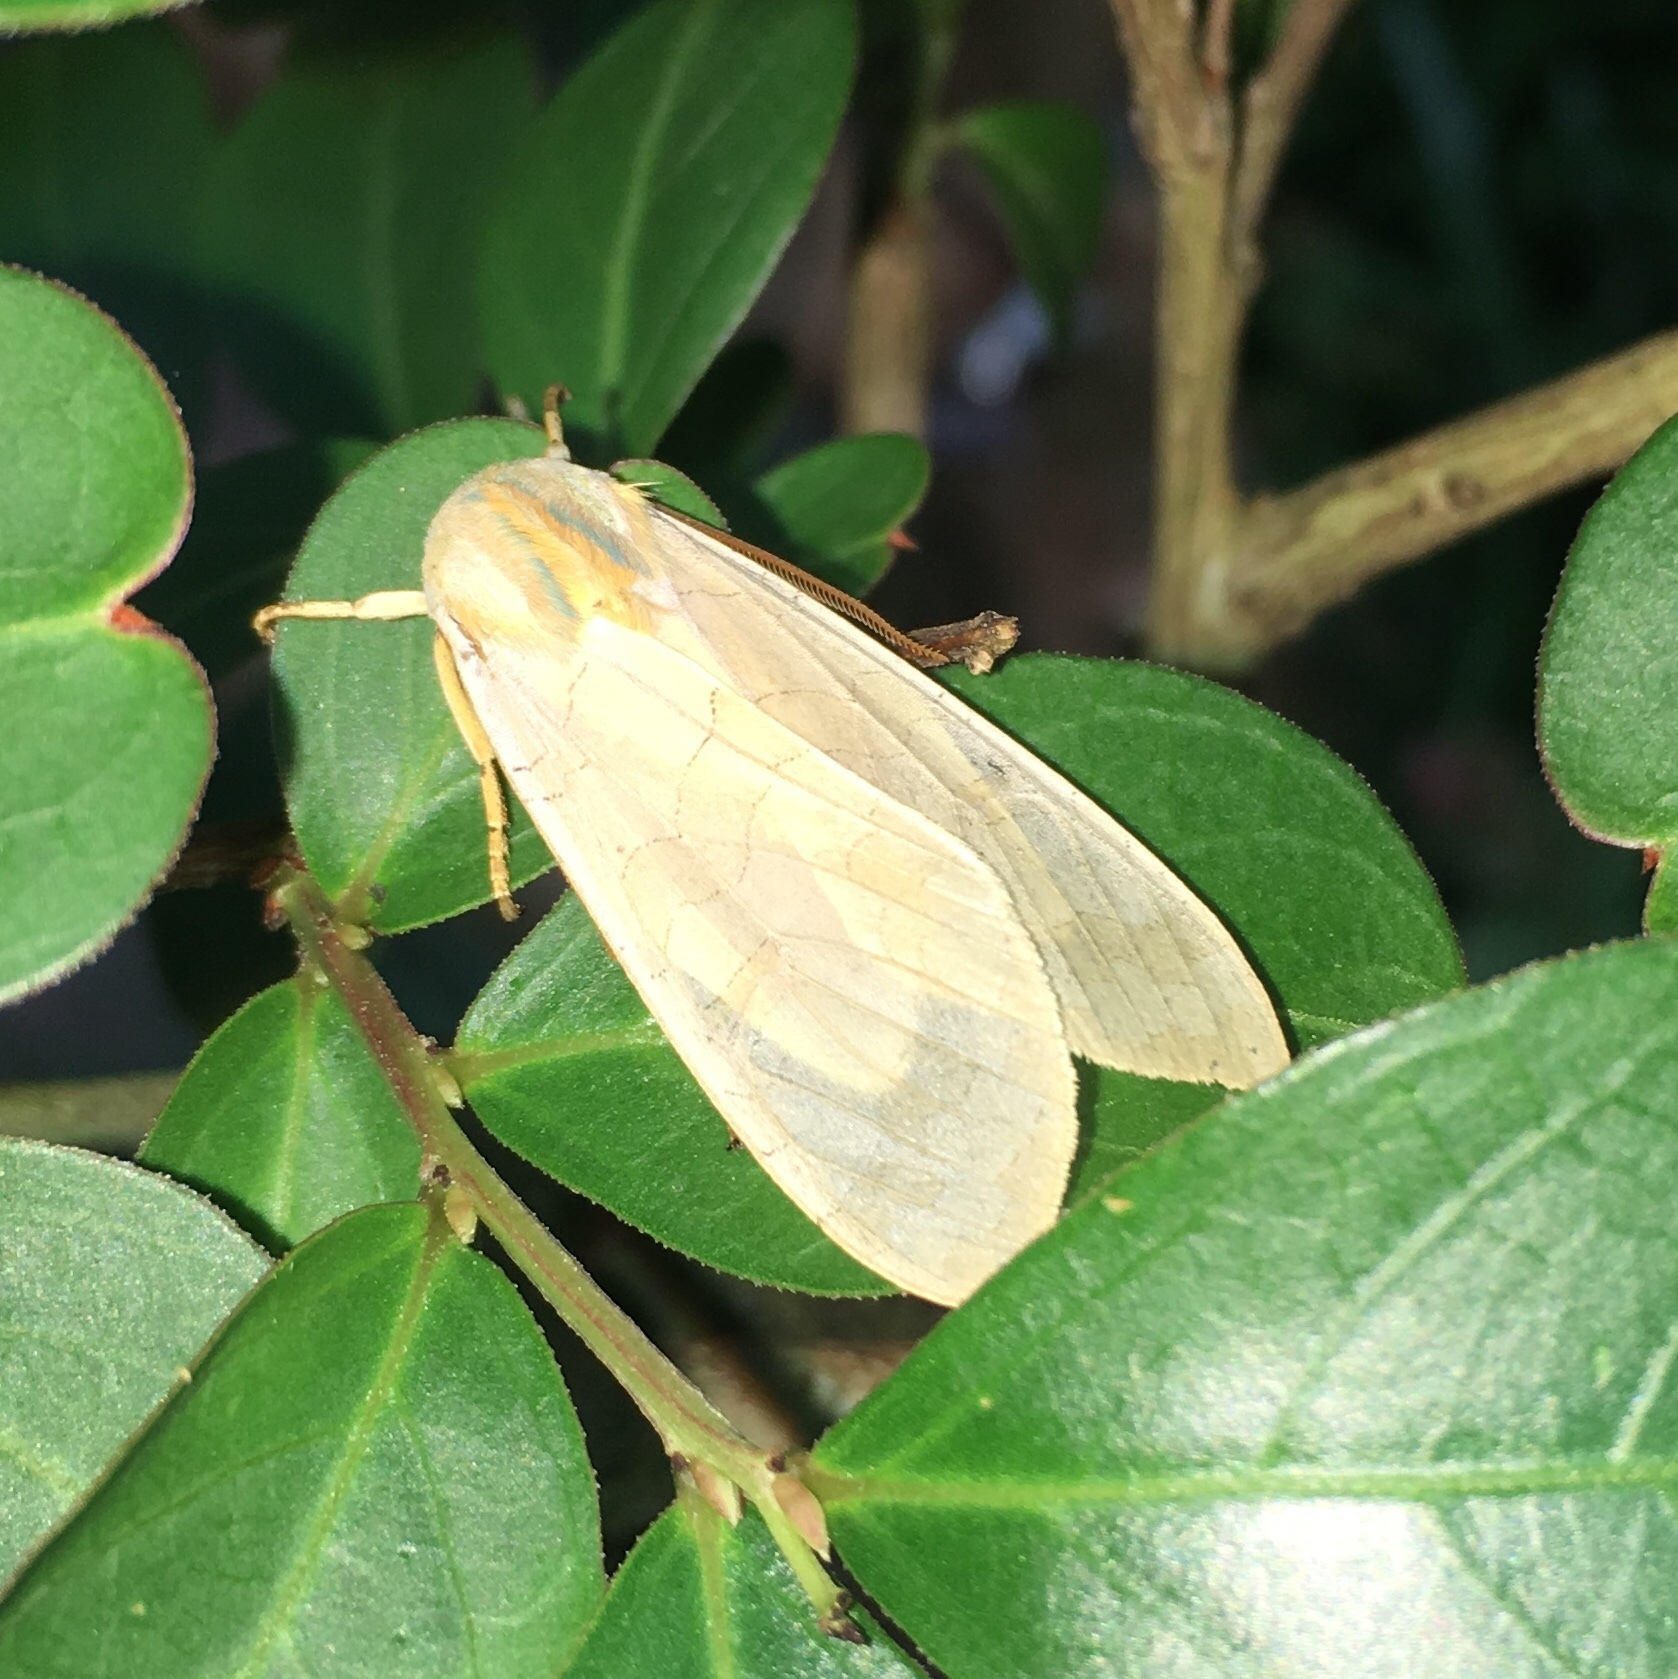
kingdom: Animalia
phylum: Arthropoda
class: Insecta
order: Lepidoptera
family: Erebidae
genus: Halysidota
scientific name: Halysidota
